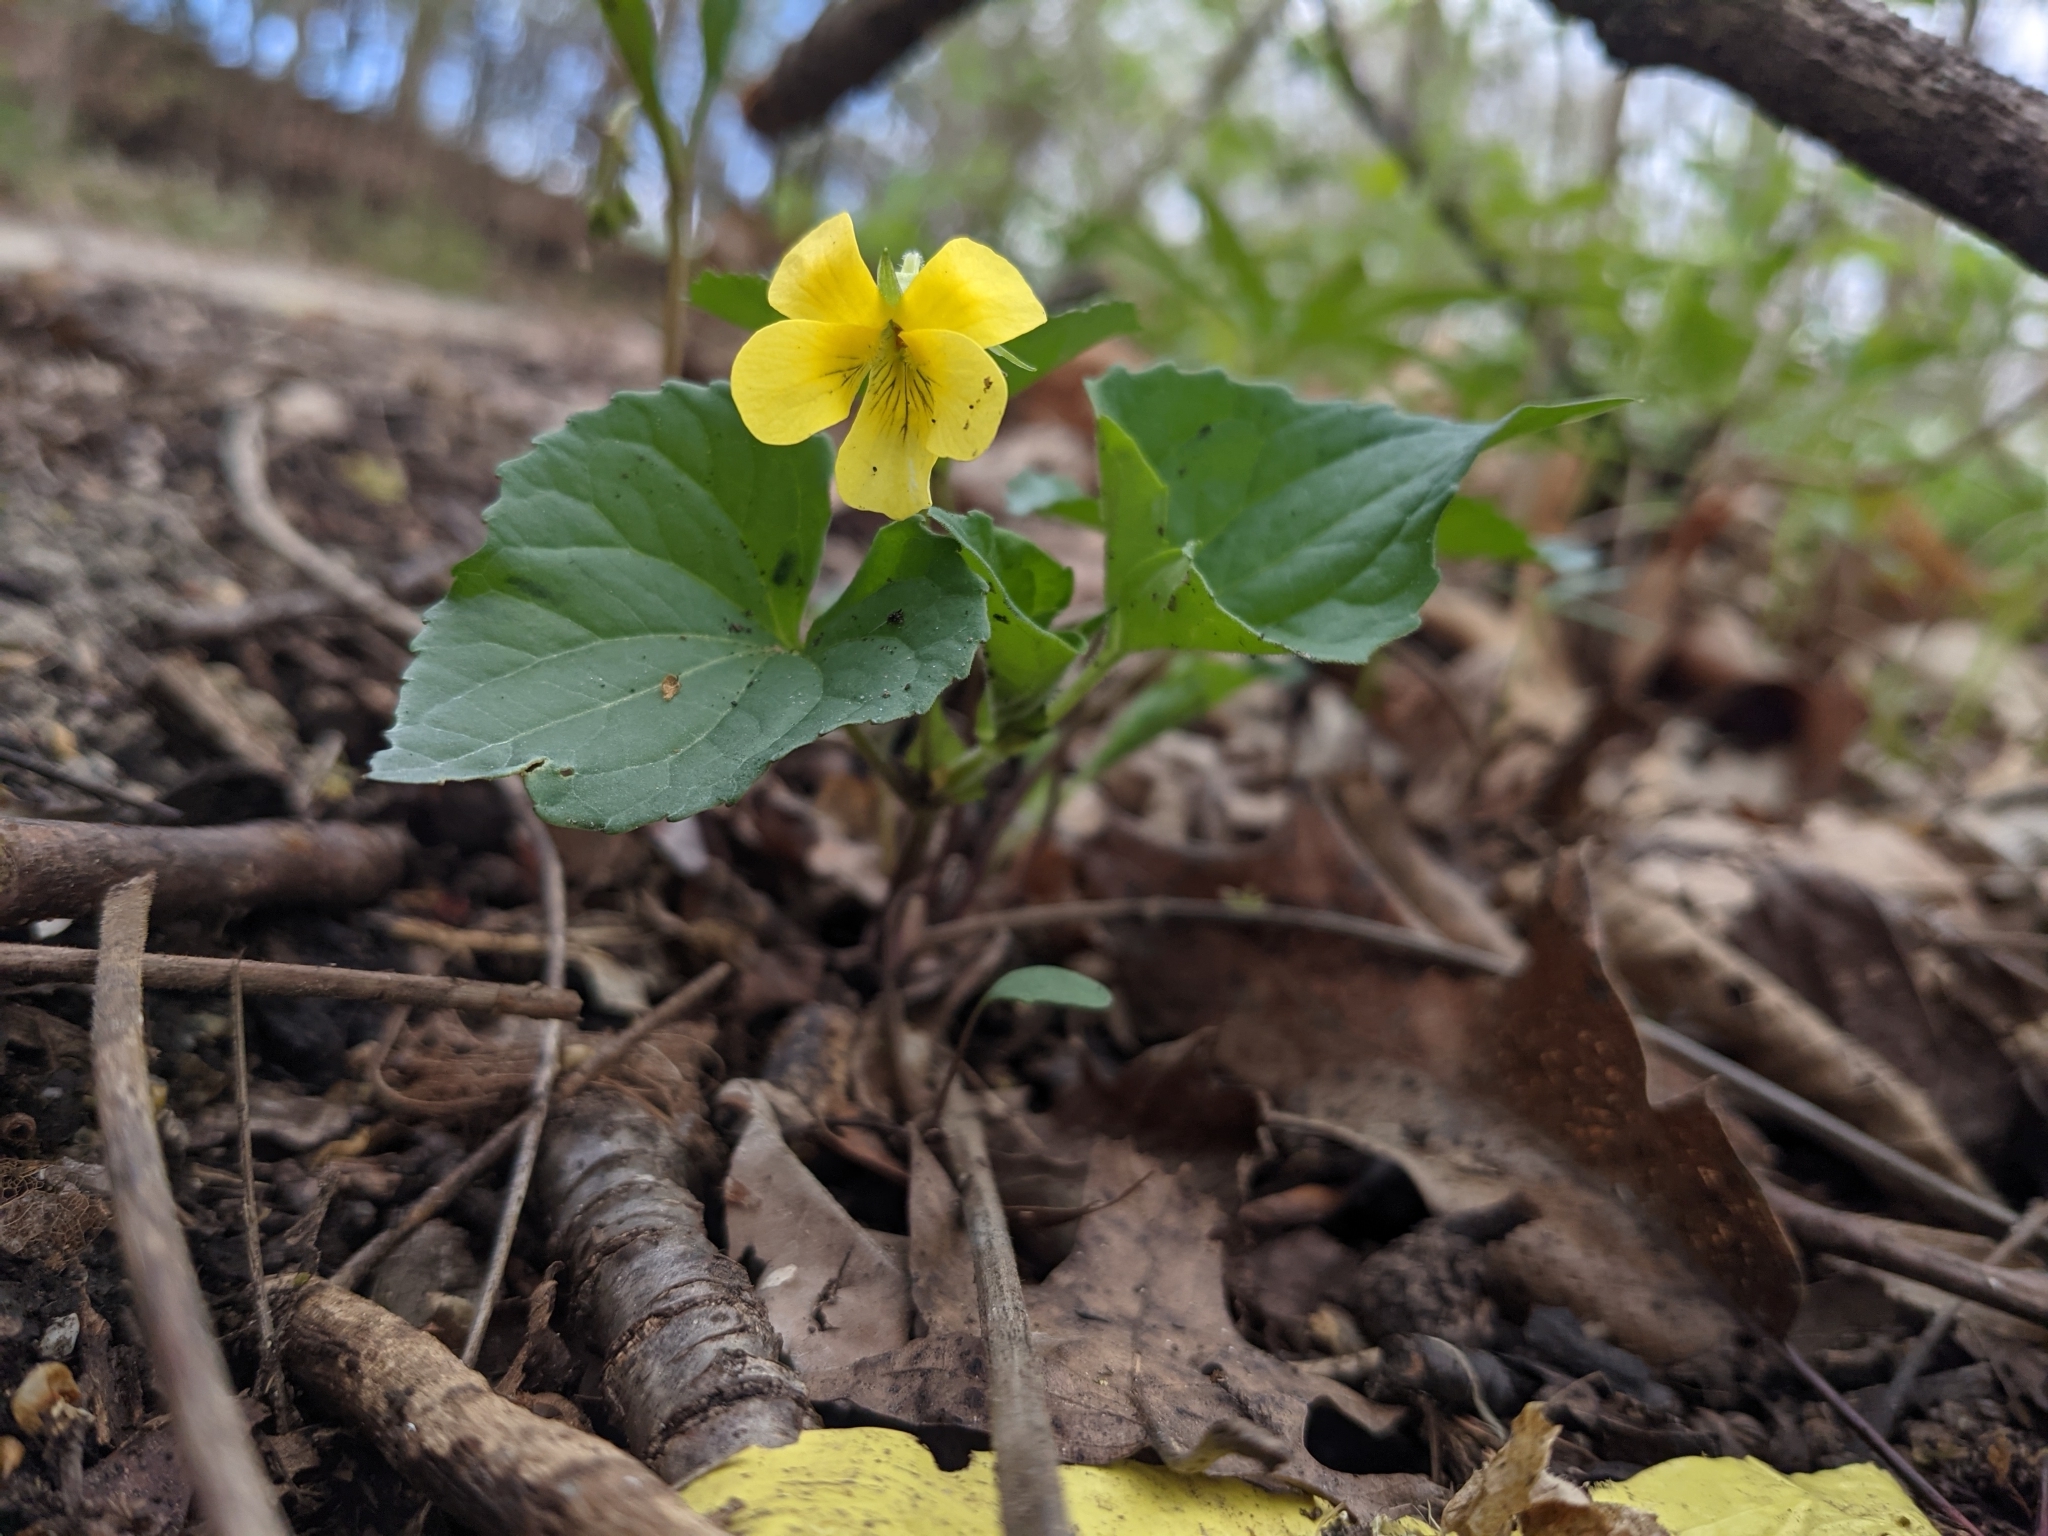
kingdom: Plantae
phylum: Tracheophyta
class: Magnoliopsida
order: Malpighiales
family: Violaceae
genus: Viola
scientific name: Viola eriocarpa
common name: Smooth yellow violet
